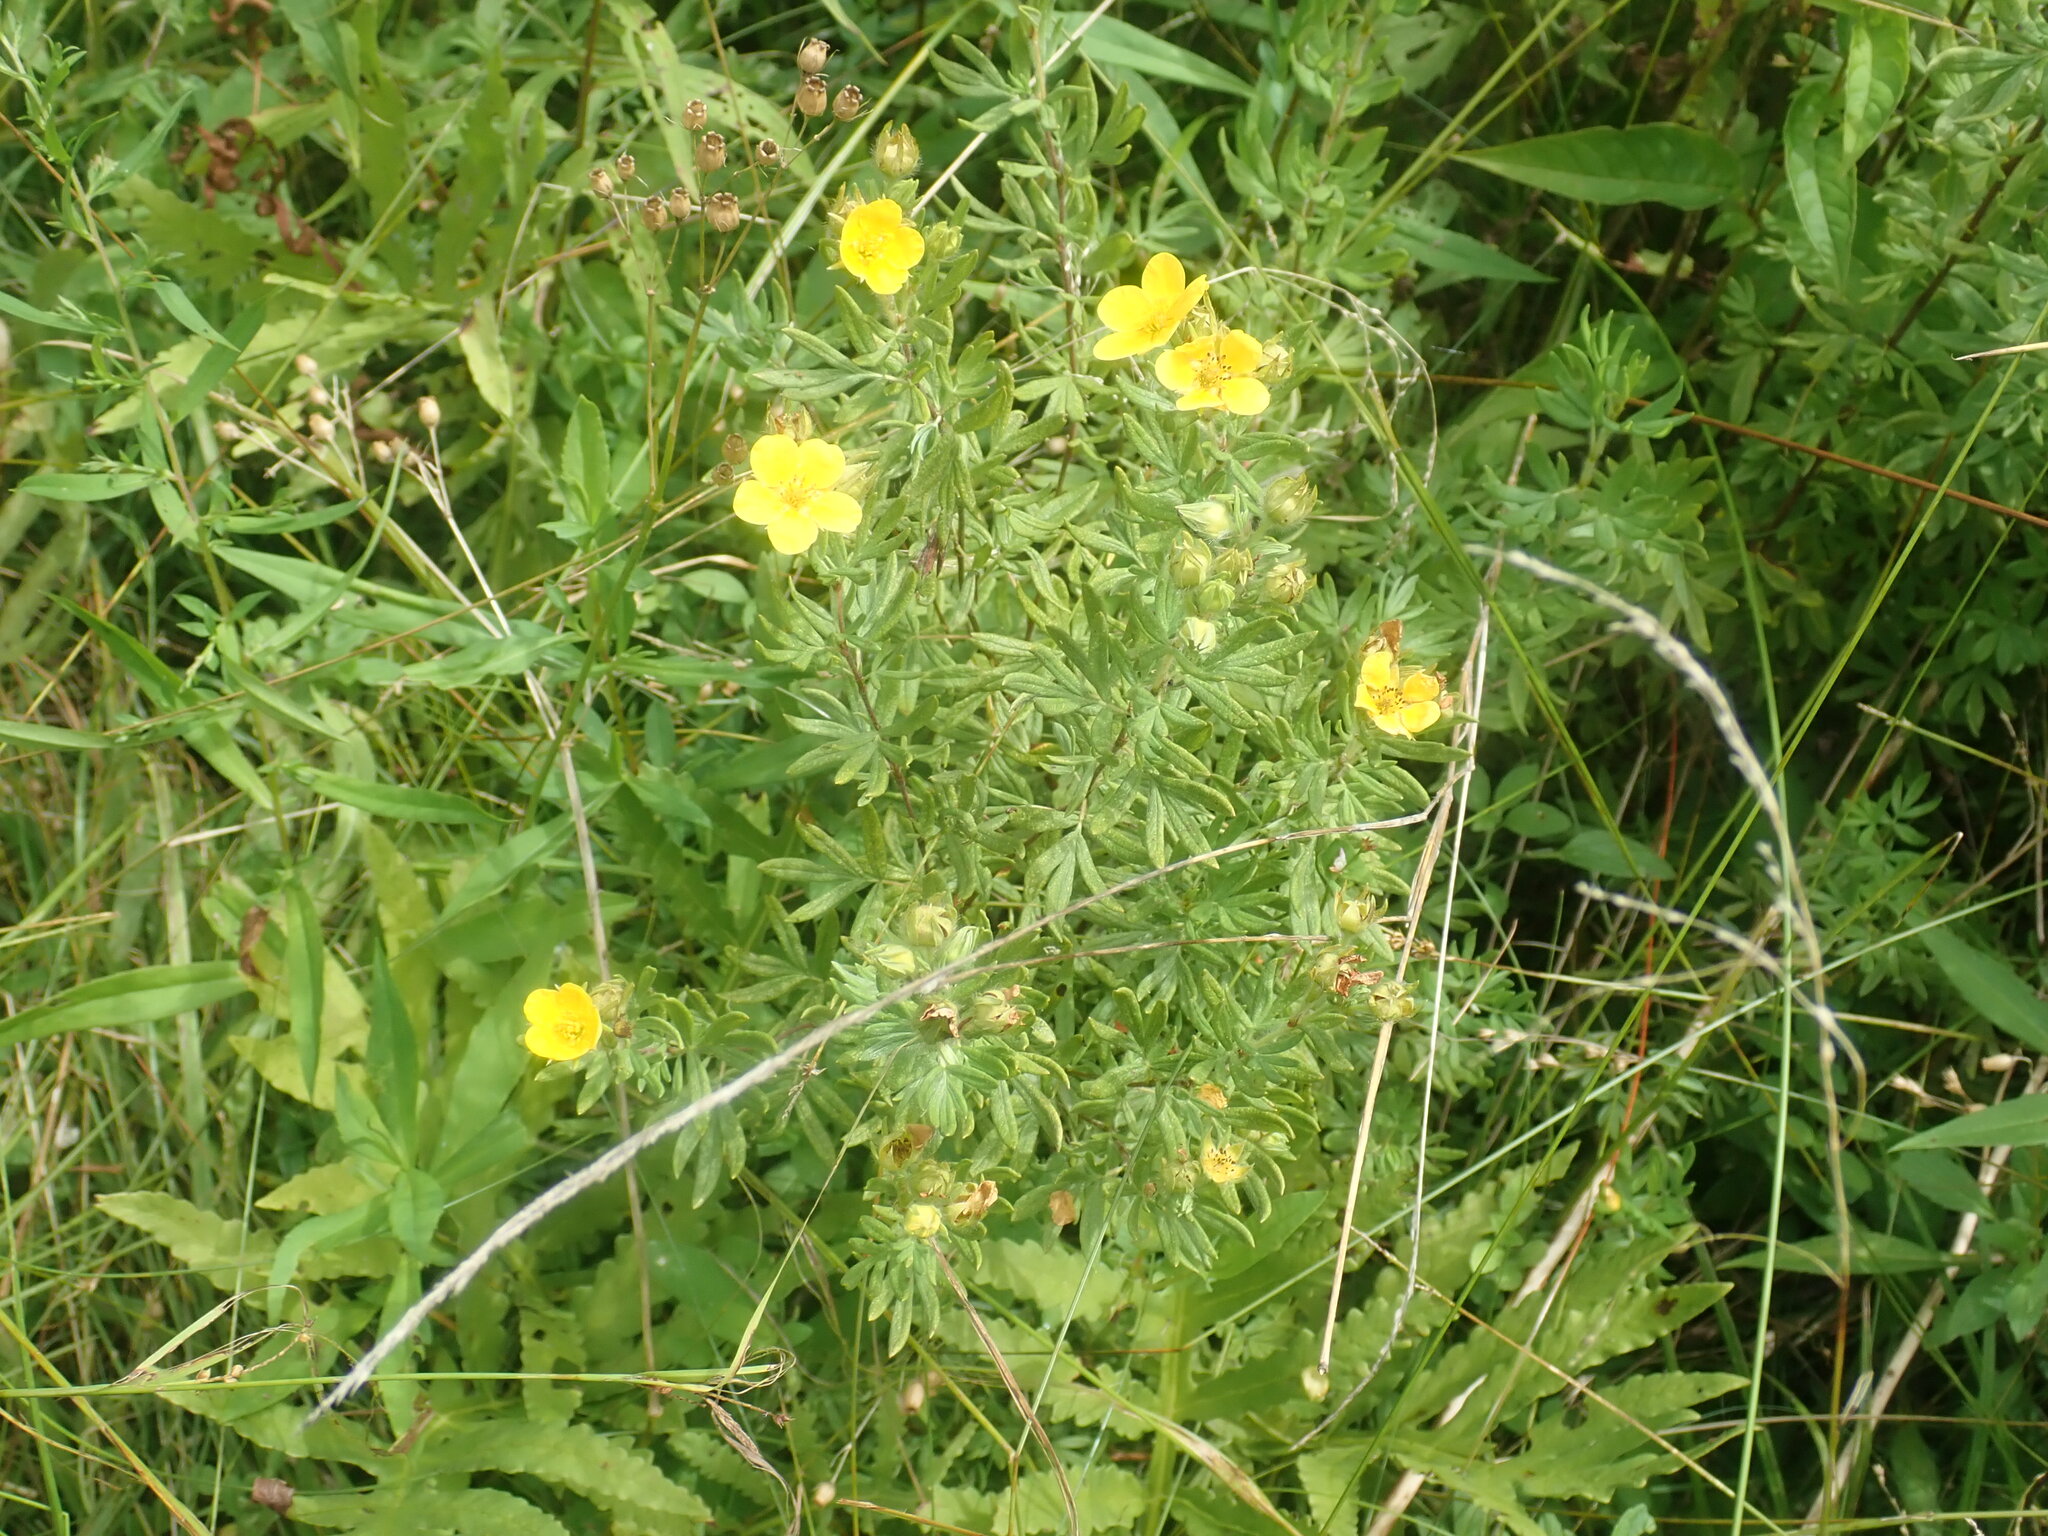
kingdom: Plantae
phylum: Tracheophyta
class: Magnoliopsida
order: Rosales
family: Rosaceae
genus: Dasiphora
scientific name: Dasiphora fruticosa
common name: Shrubby cinquefoil
